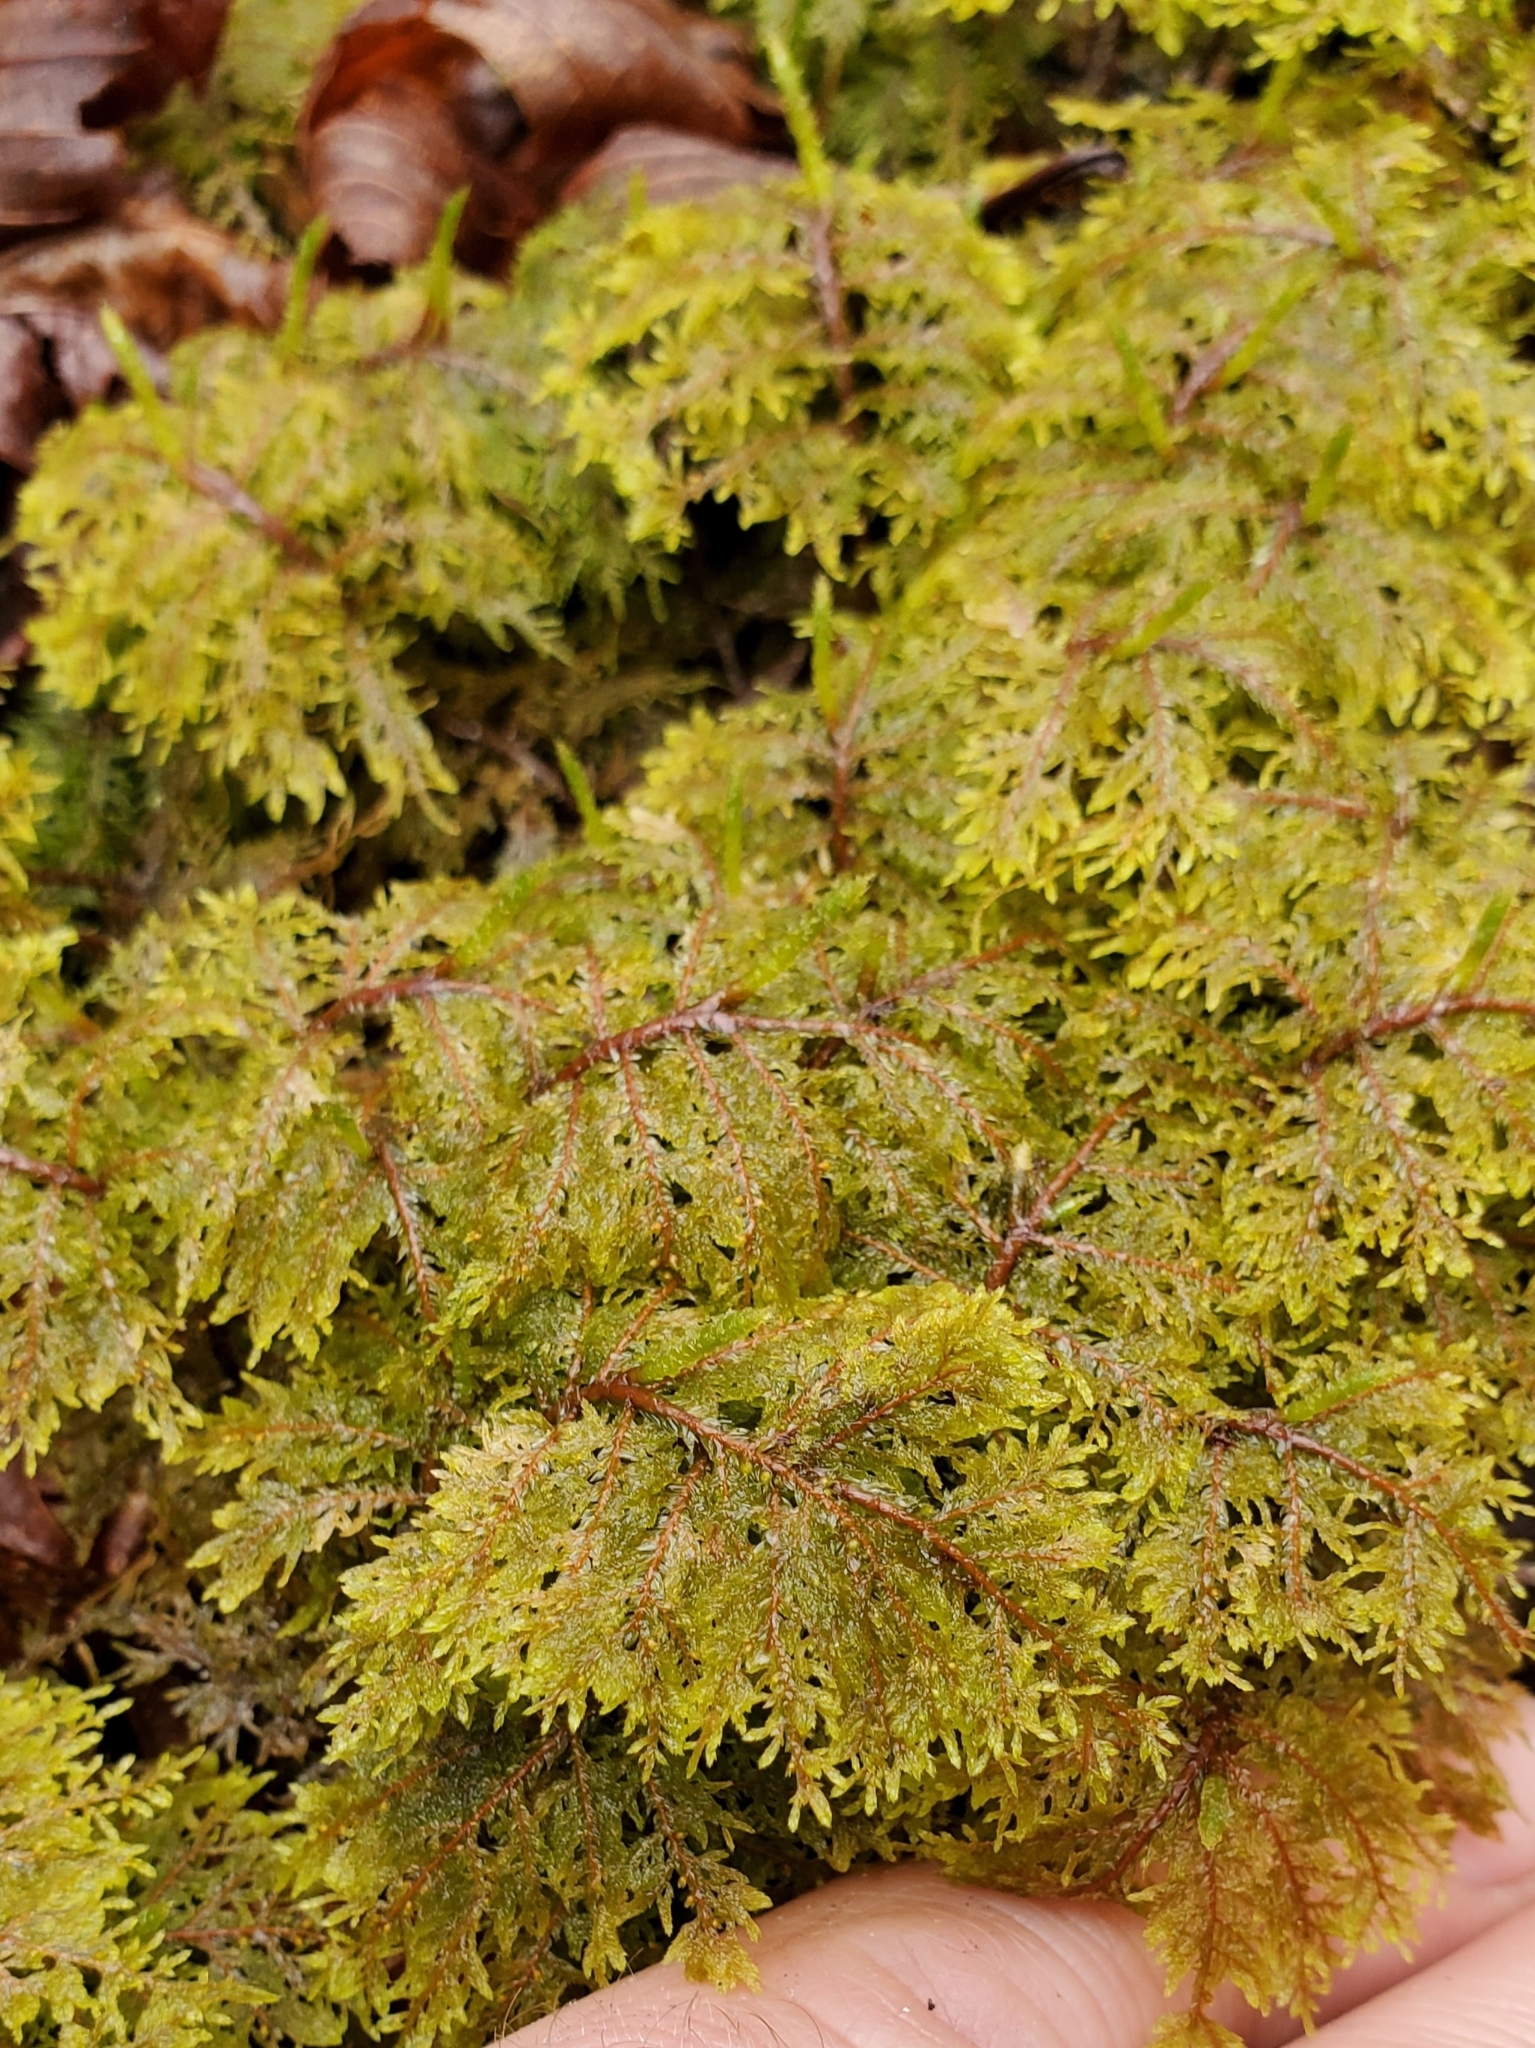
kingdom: Plantae
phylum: Bryophyta
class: Bryopsida
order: Hypnales
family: Hylocomiaceae
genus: Hylocomium
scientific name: Hylocomium splendens
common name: Stairstep moss
